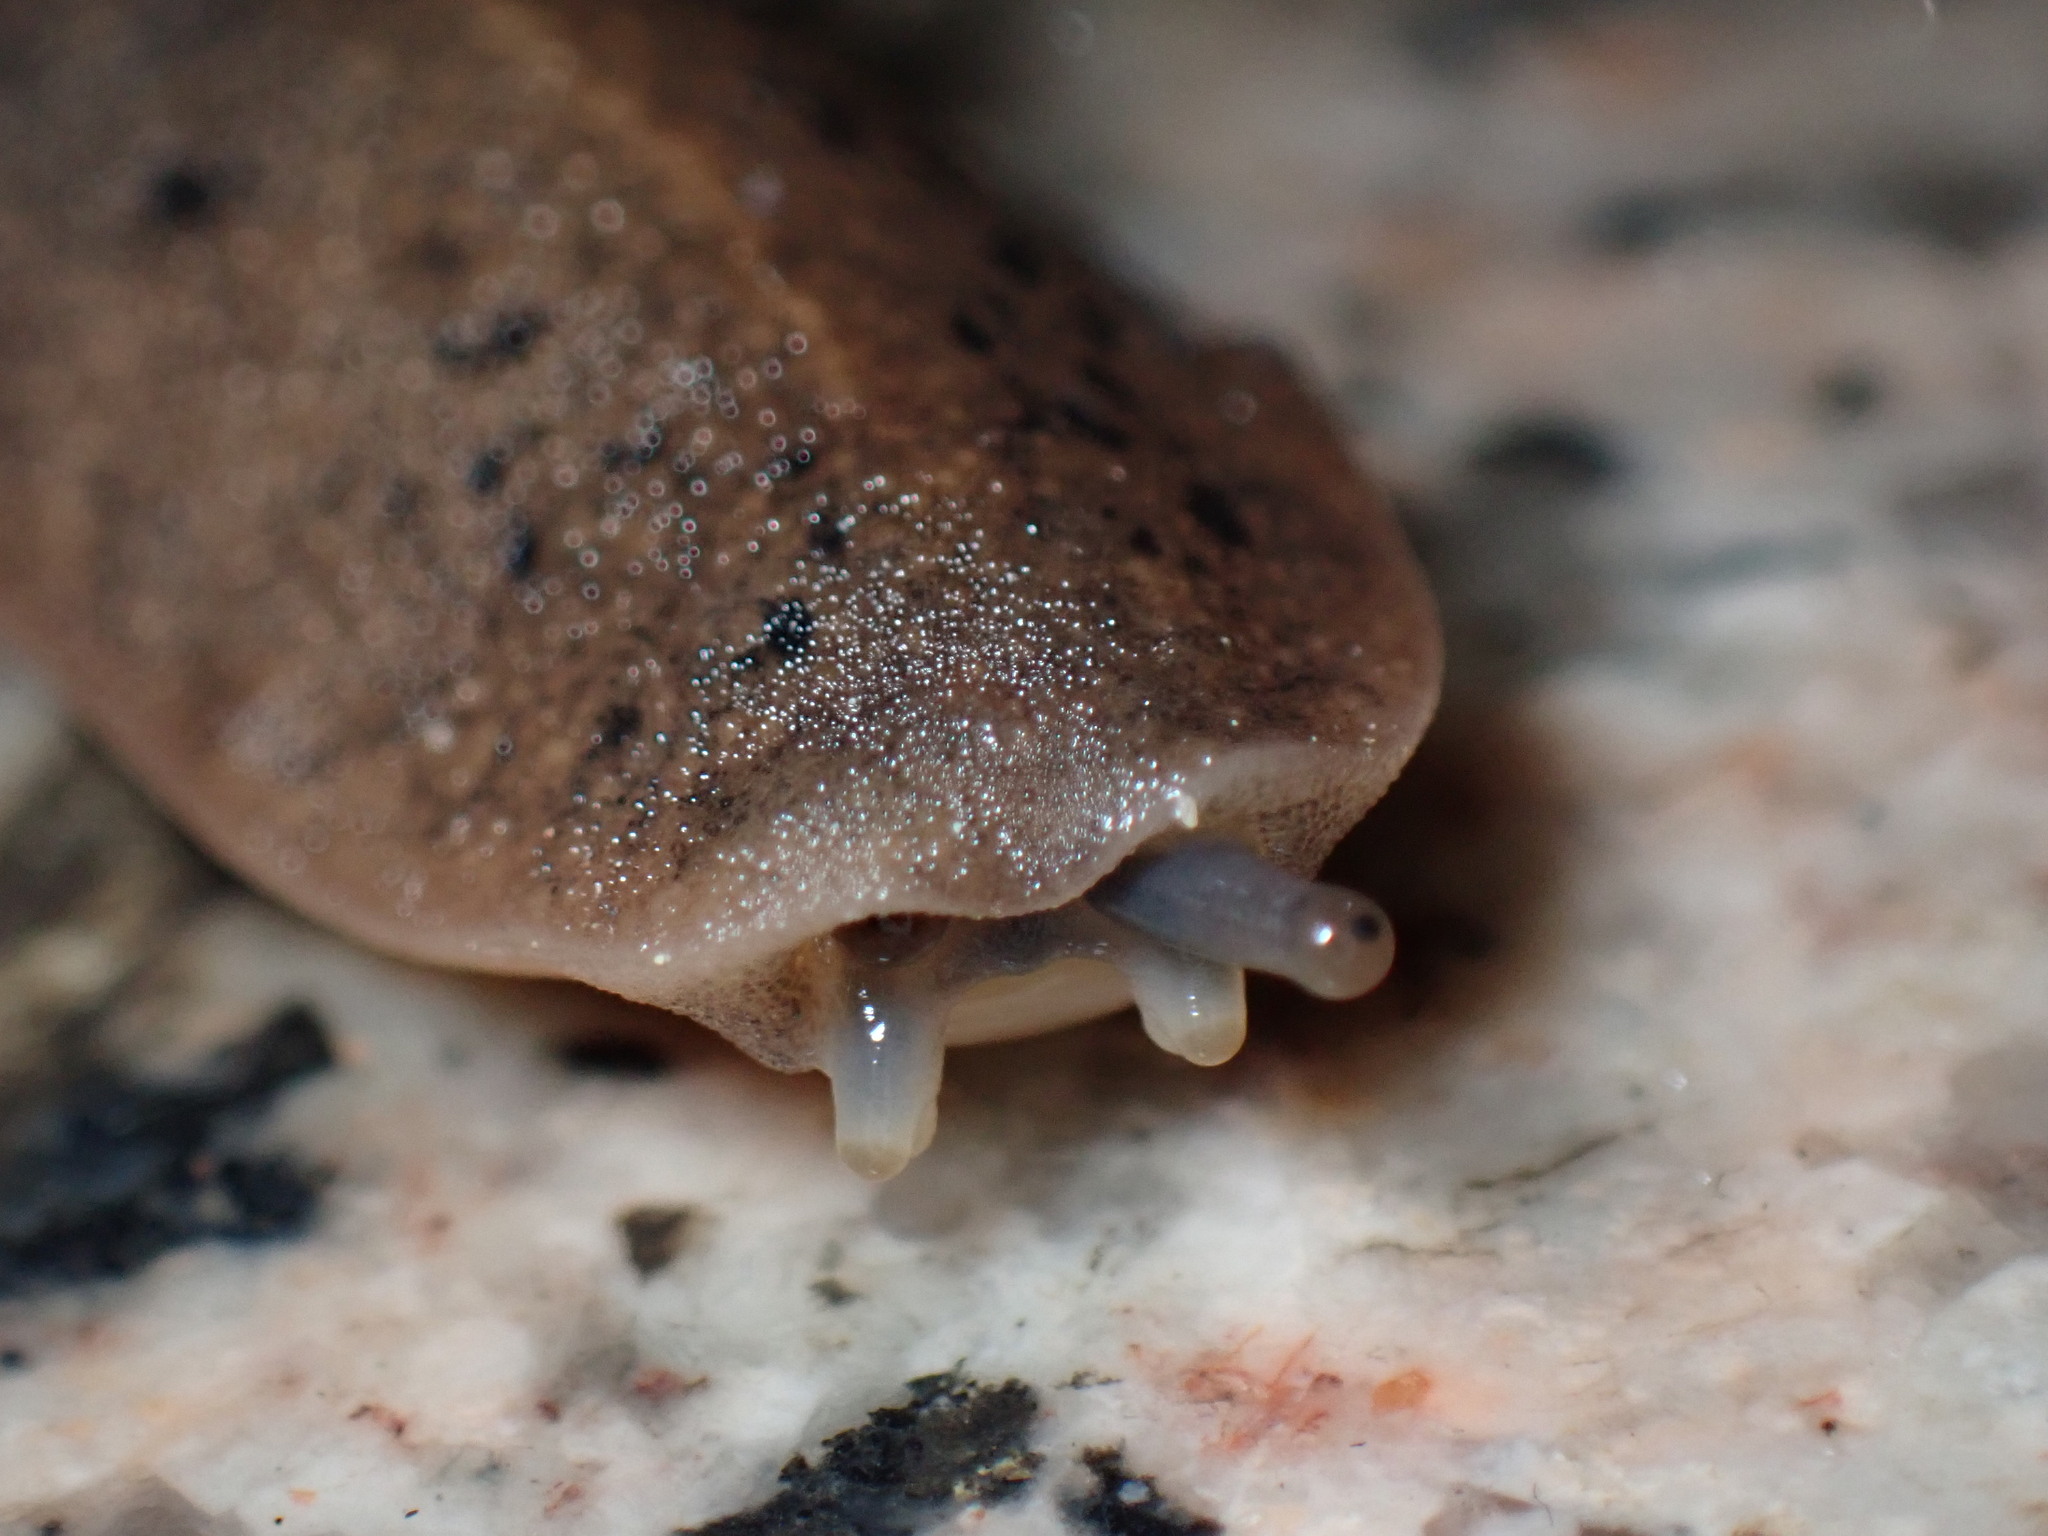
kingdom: Animalia
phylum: Mollusca
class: Gastropoda
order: Systellommatophora
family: Veronicellidae
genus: Valiguna
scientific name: Valiguna siamensis
